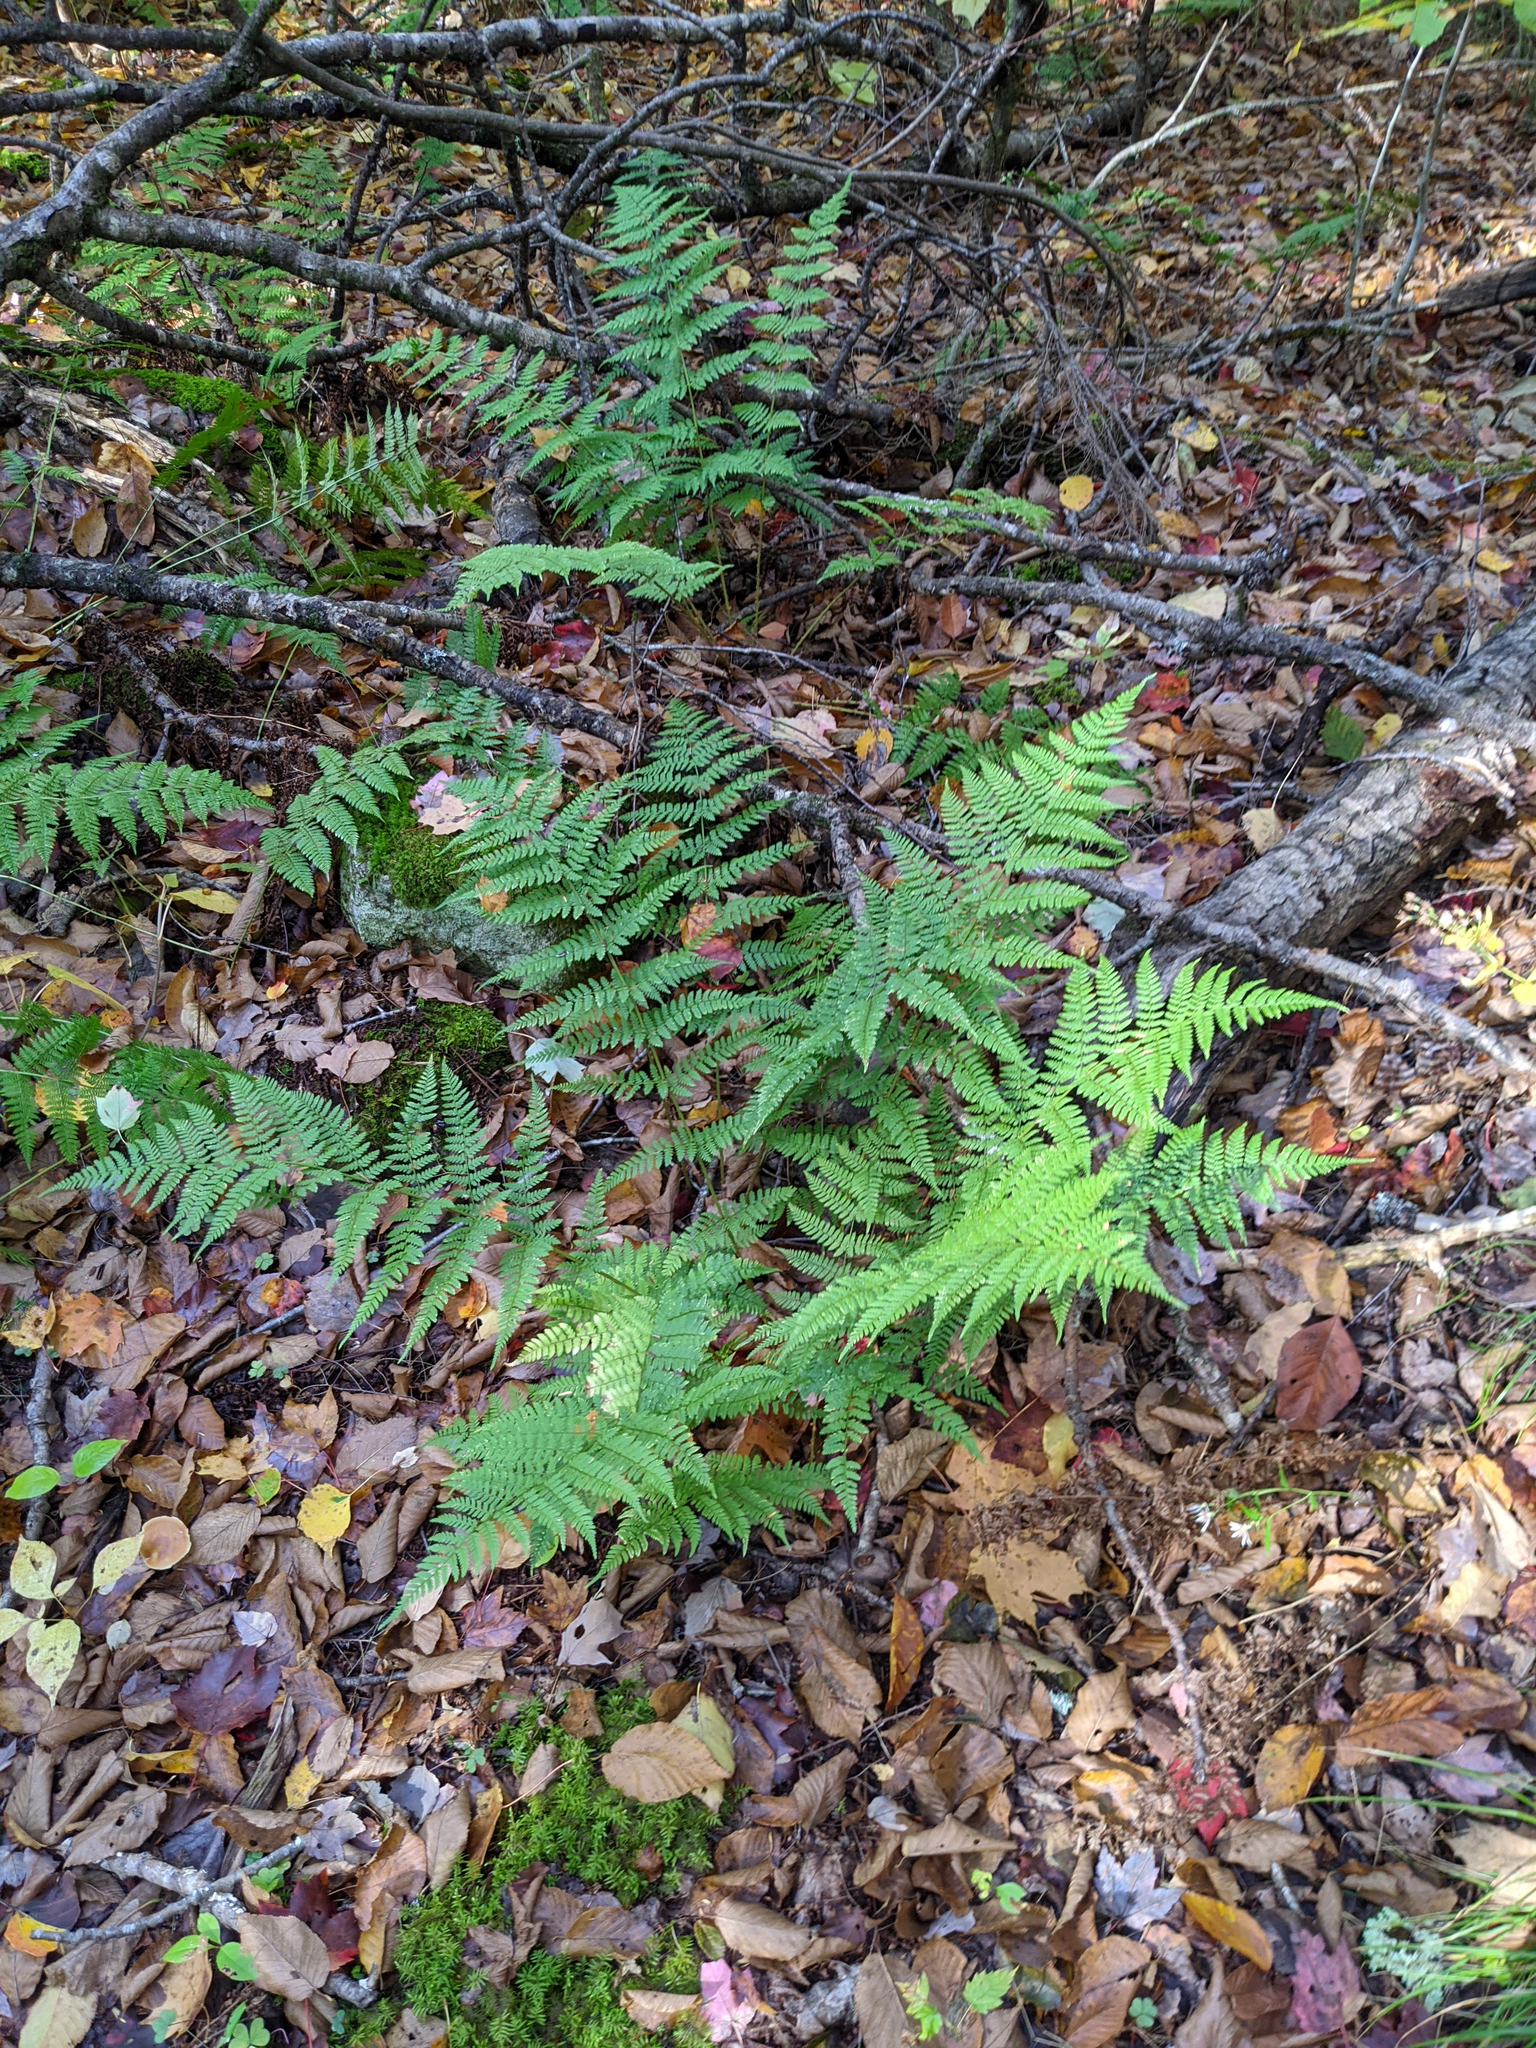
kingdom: Plantae
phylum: Tracheophyta
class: Polypodiopsida
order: Polypodiales
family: Dryopteridaceae
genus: Dryopteris
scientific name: Dryopteris intermedia
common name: Evergreen wood fern
